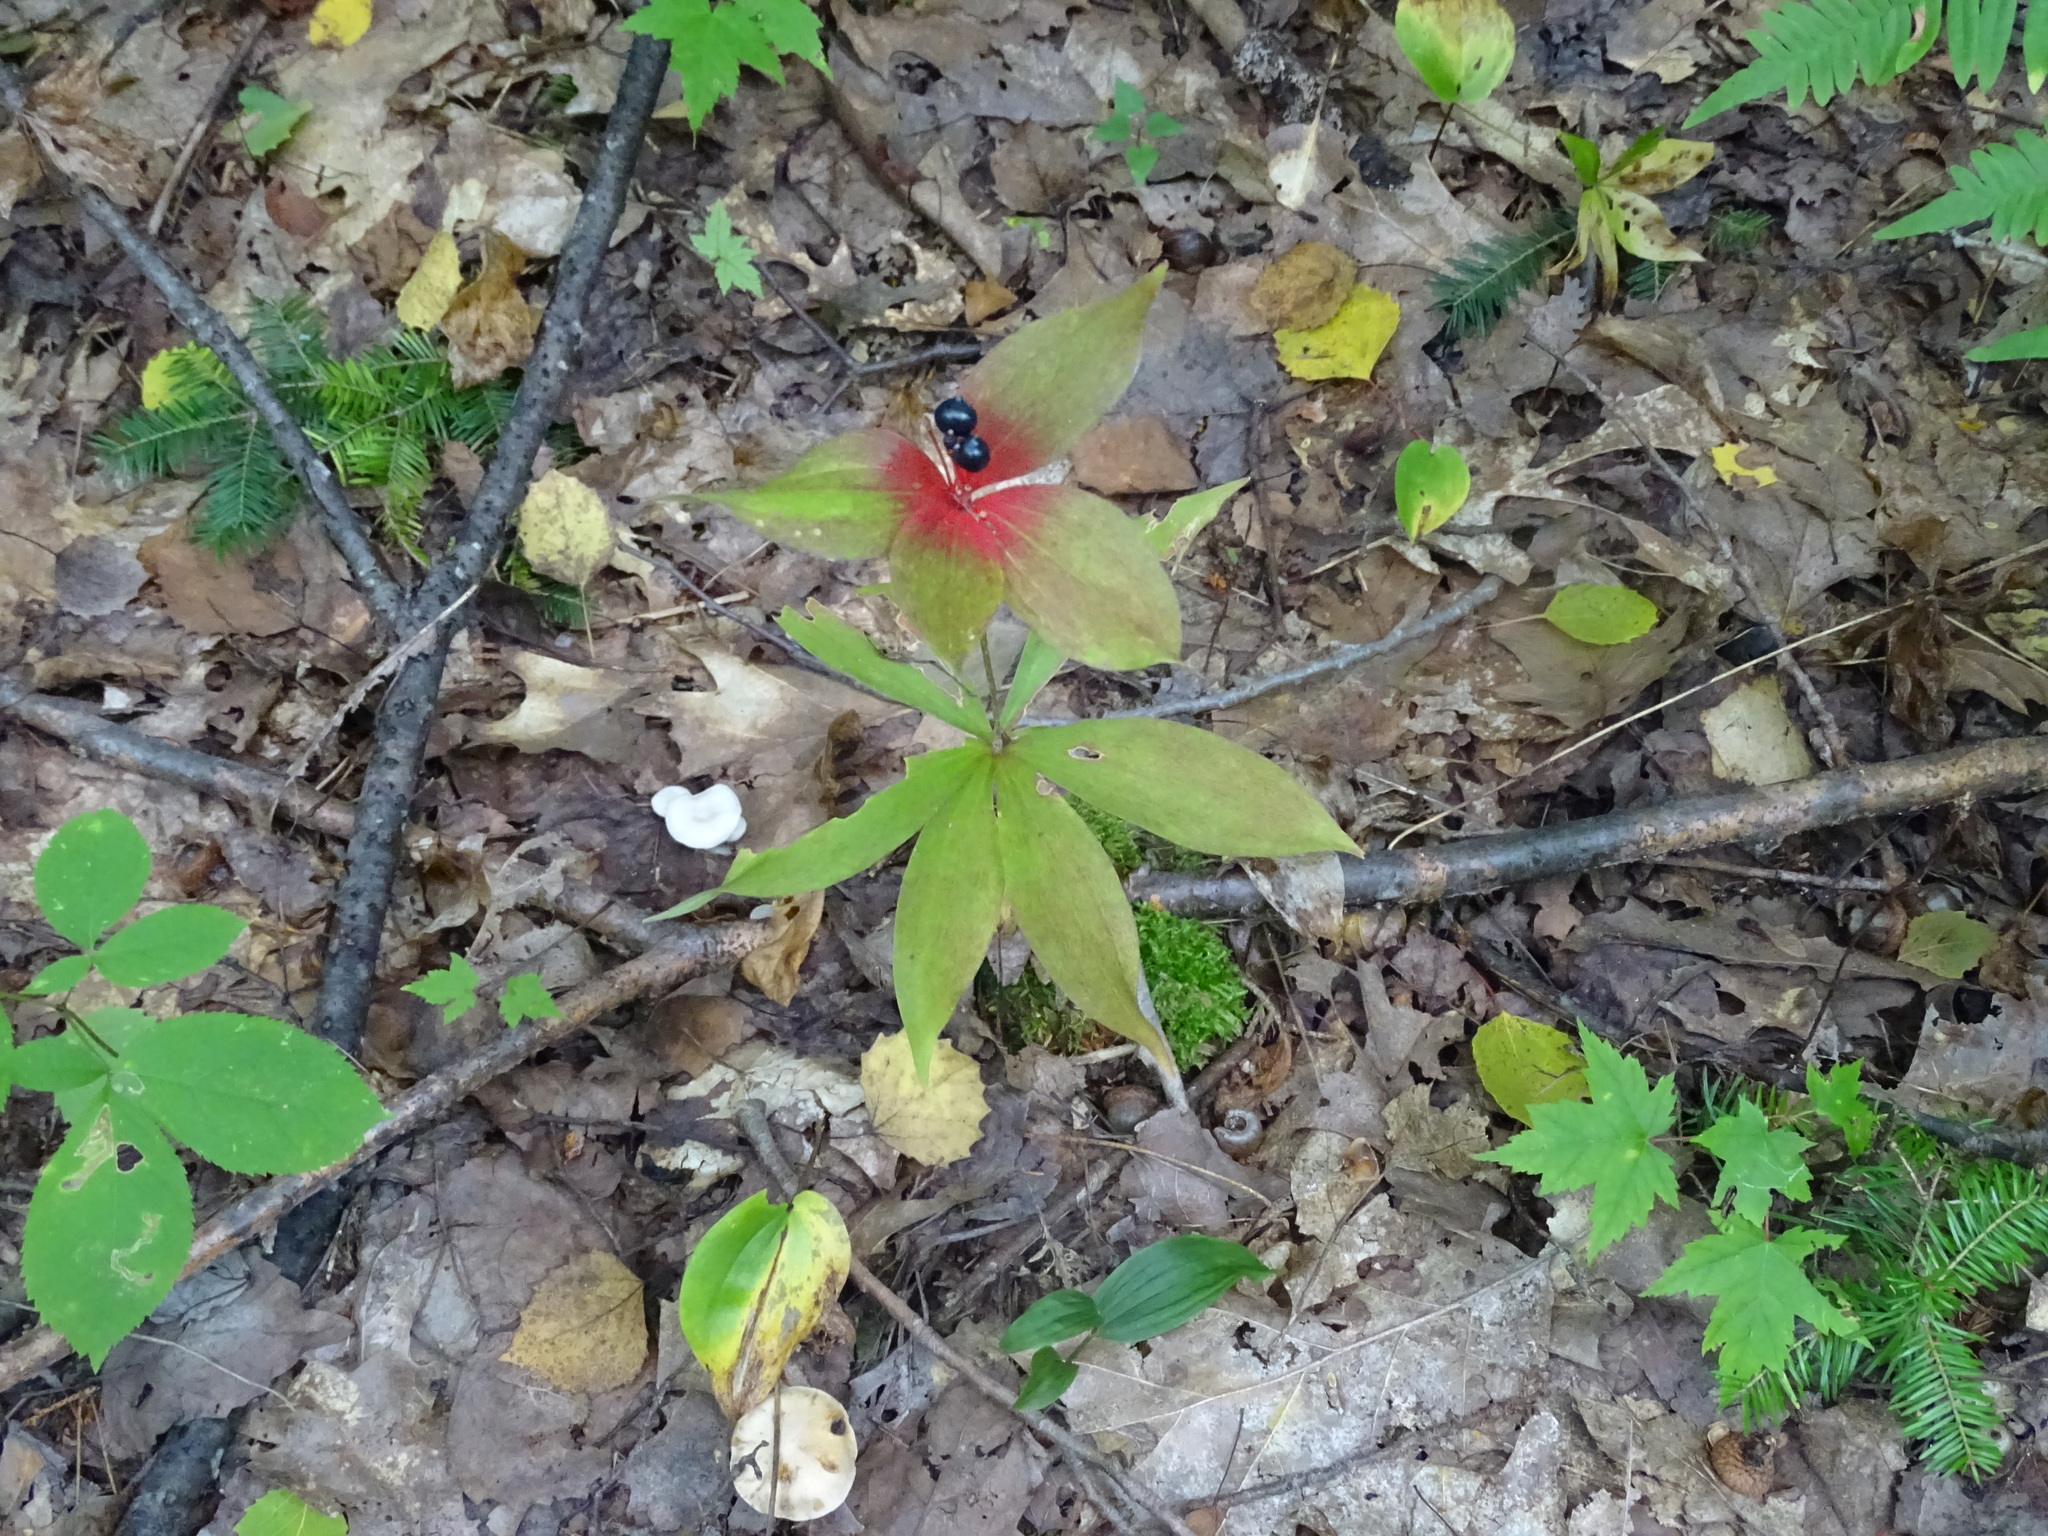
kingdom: Plantae
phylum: Tracheophyta
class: Liliopsida
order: Liliales
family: Liliaceae
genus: Medeola
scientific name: Medeola virginiana
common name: Indian cucumber-root
